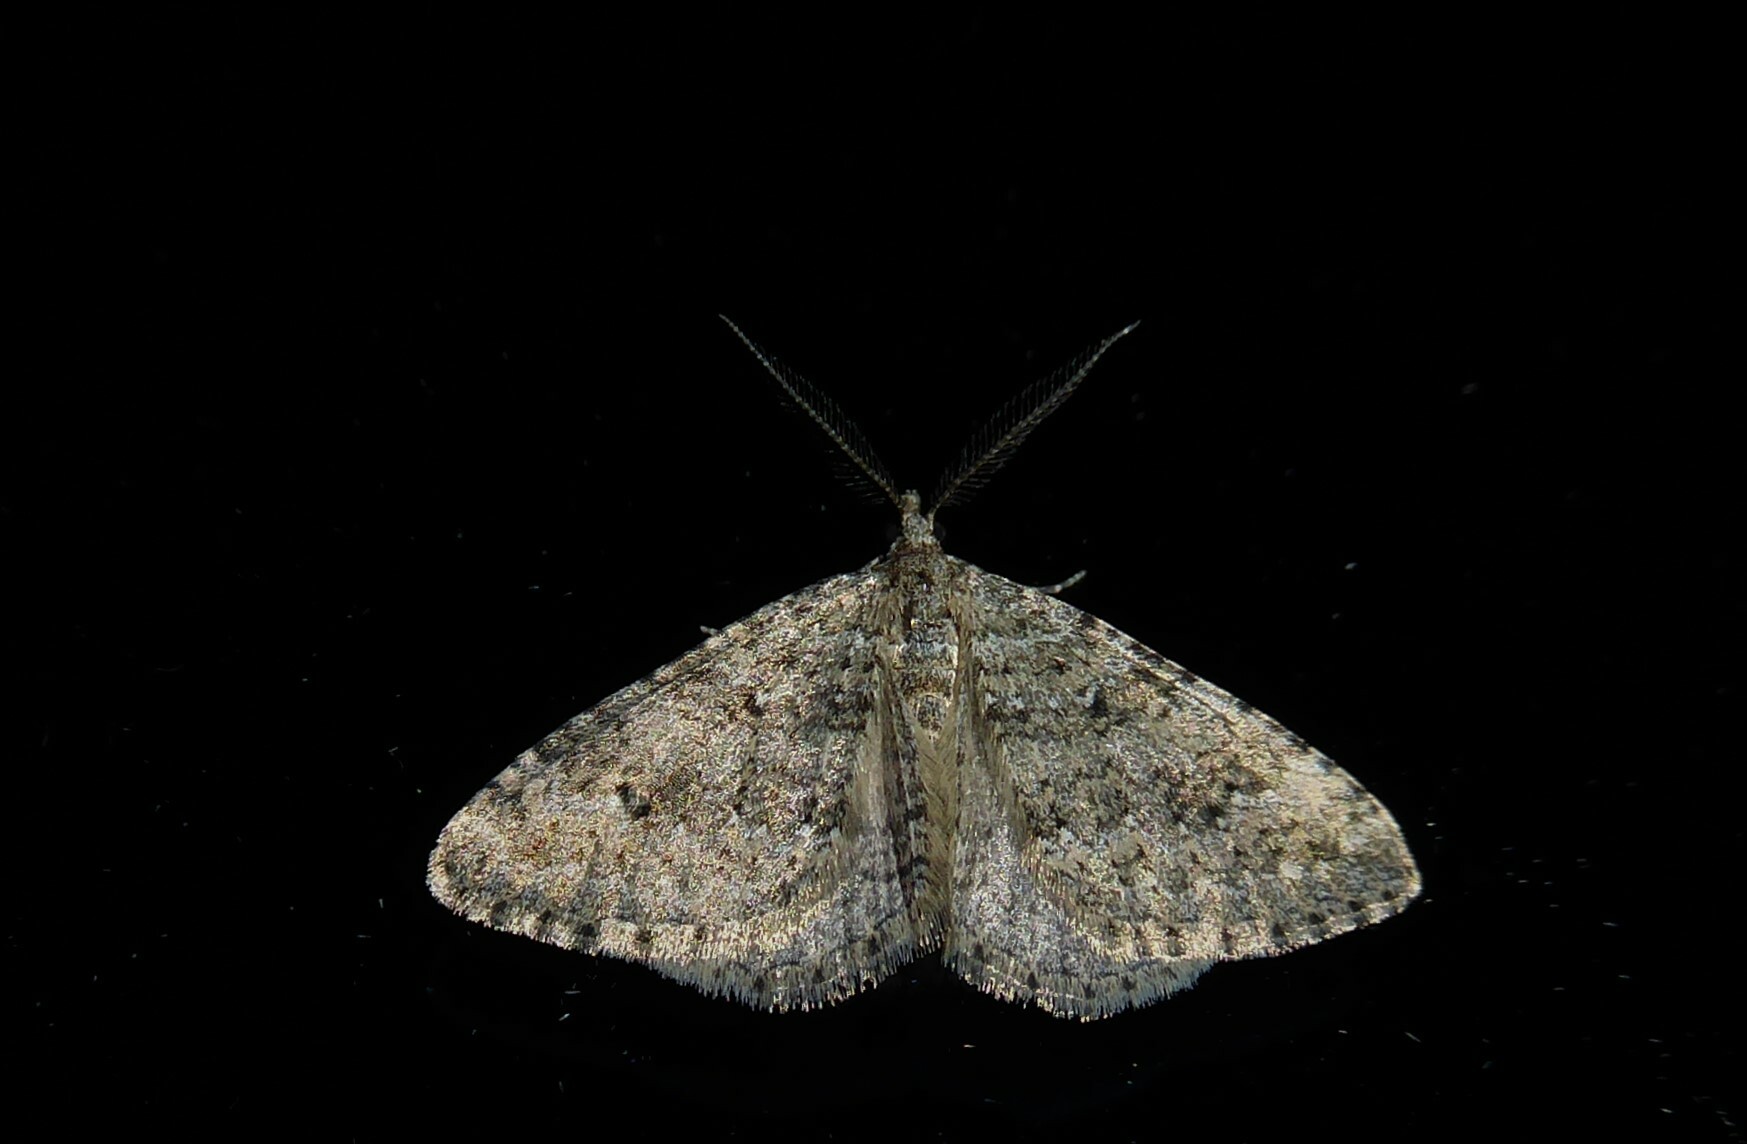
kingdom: Animalia
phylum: Arthropoda
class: Insecta
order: Lepidoptera
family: Geometridae
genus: Helastia
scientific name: Helastia corcularia
